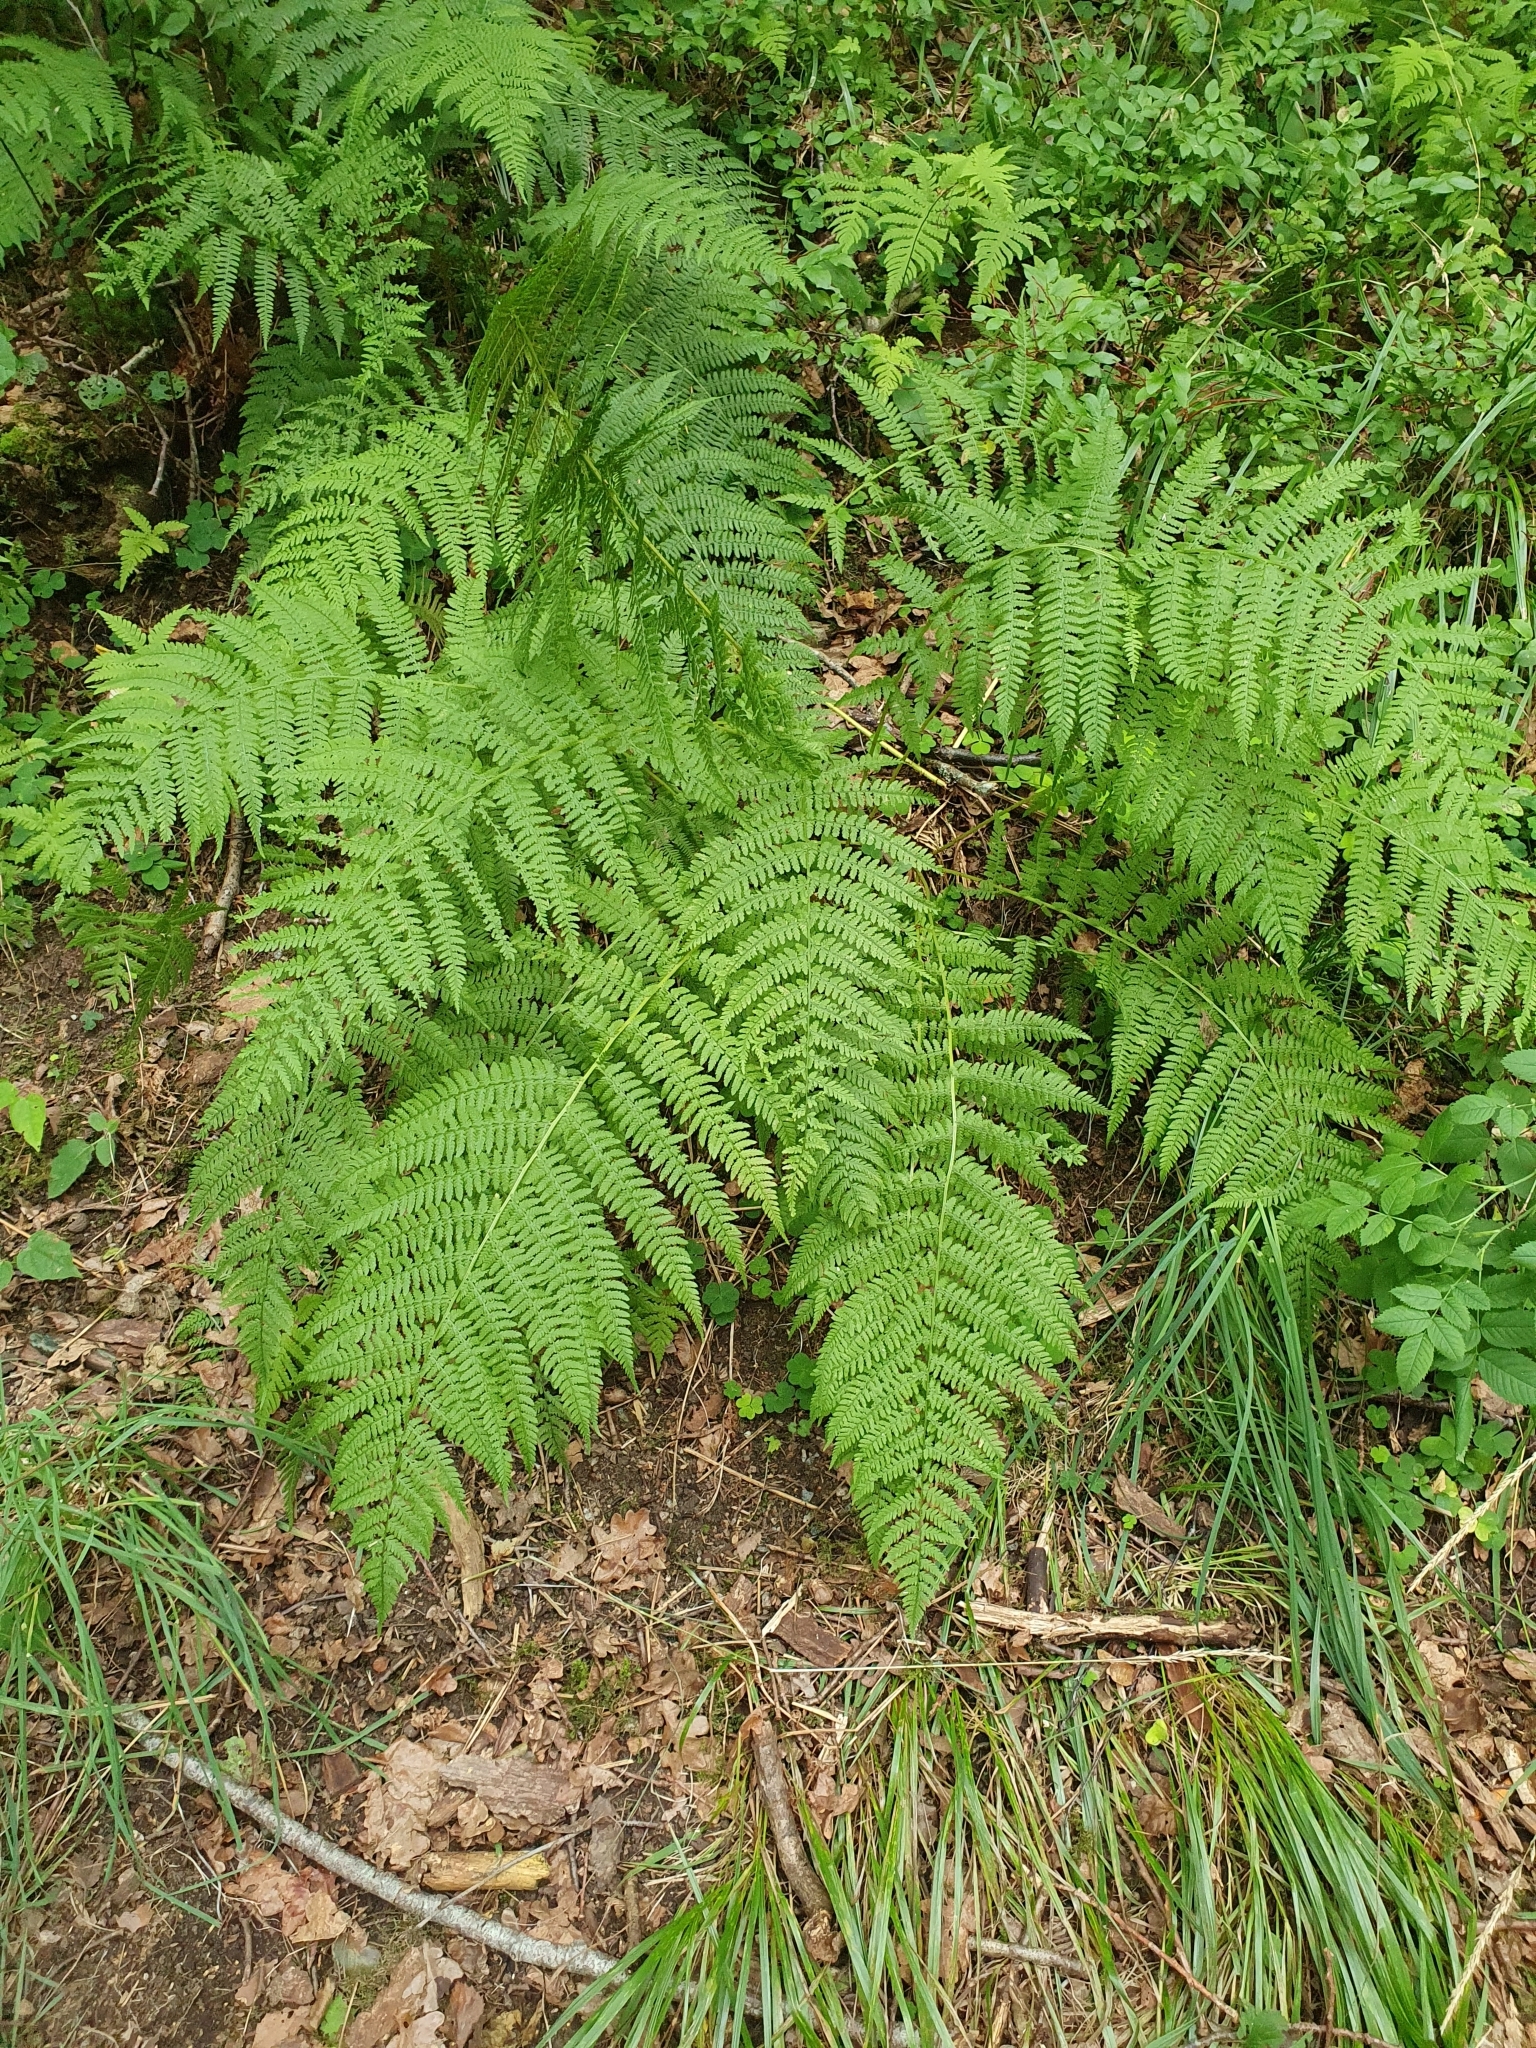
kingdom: Plantae
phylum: Tracheophyta
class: Polypodiopsida
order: Polypodiales
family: Athyriaceae
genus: Athyrium
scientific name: Athyrium filix-femina
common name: Lady fern
